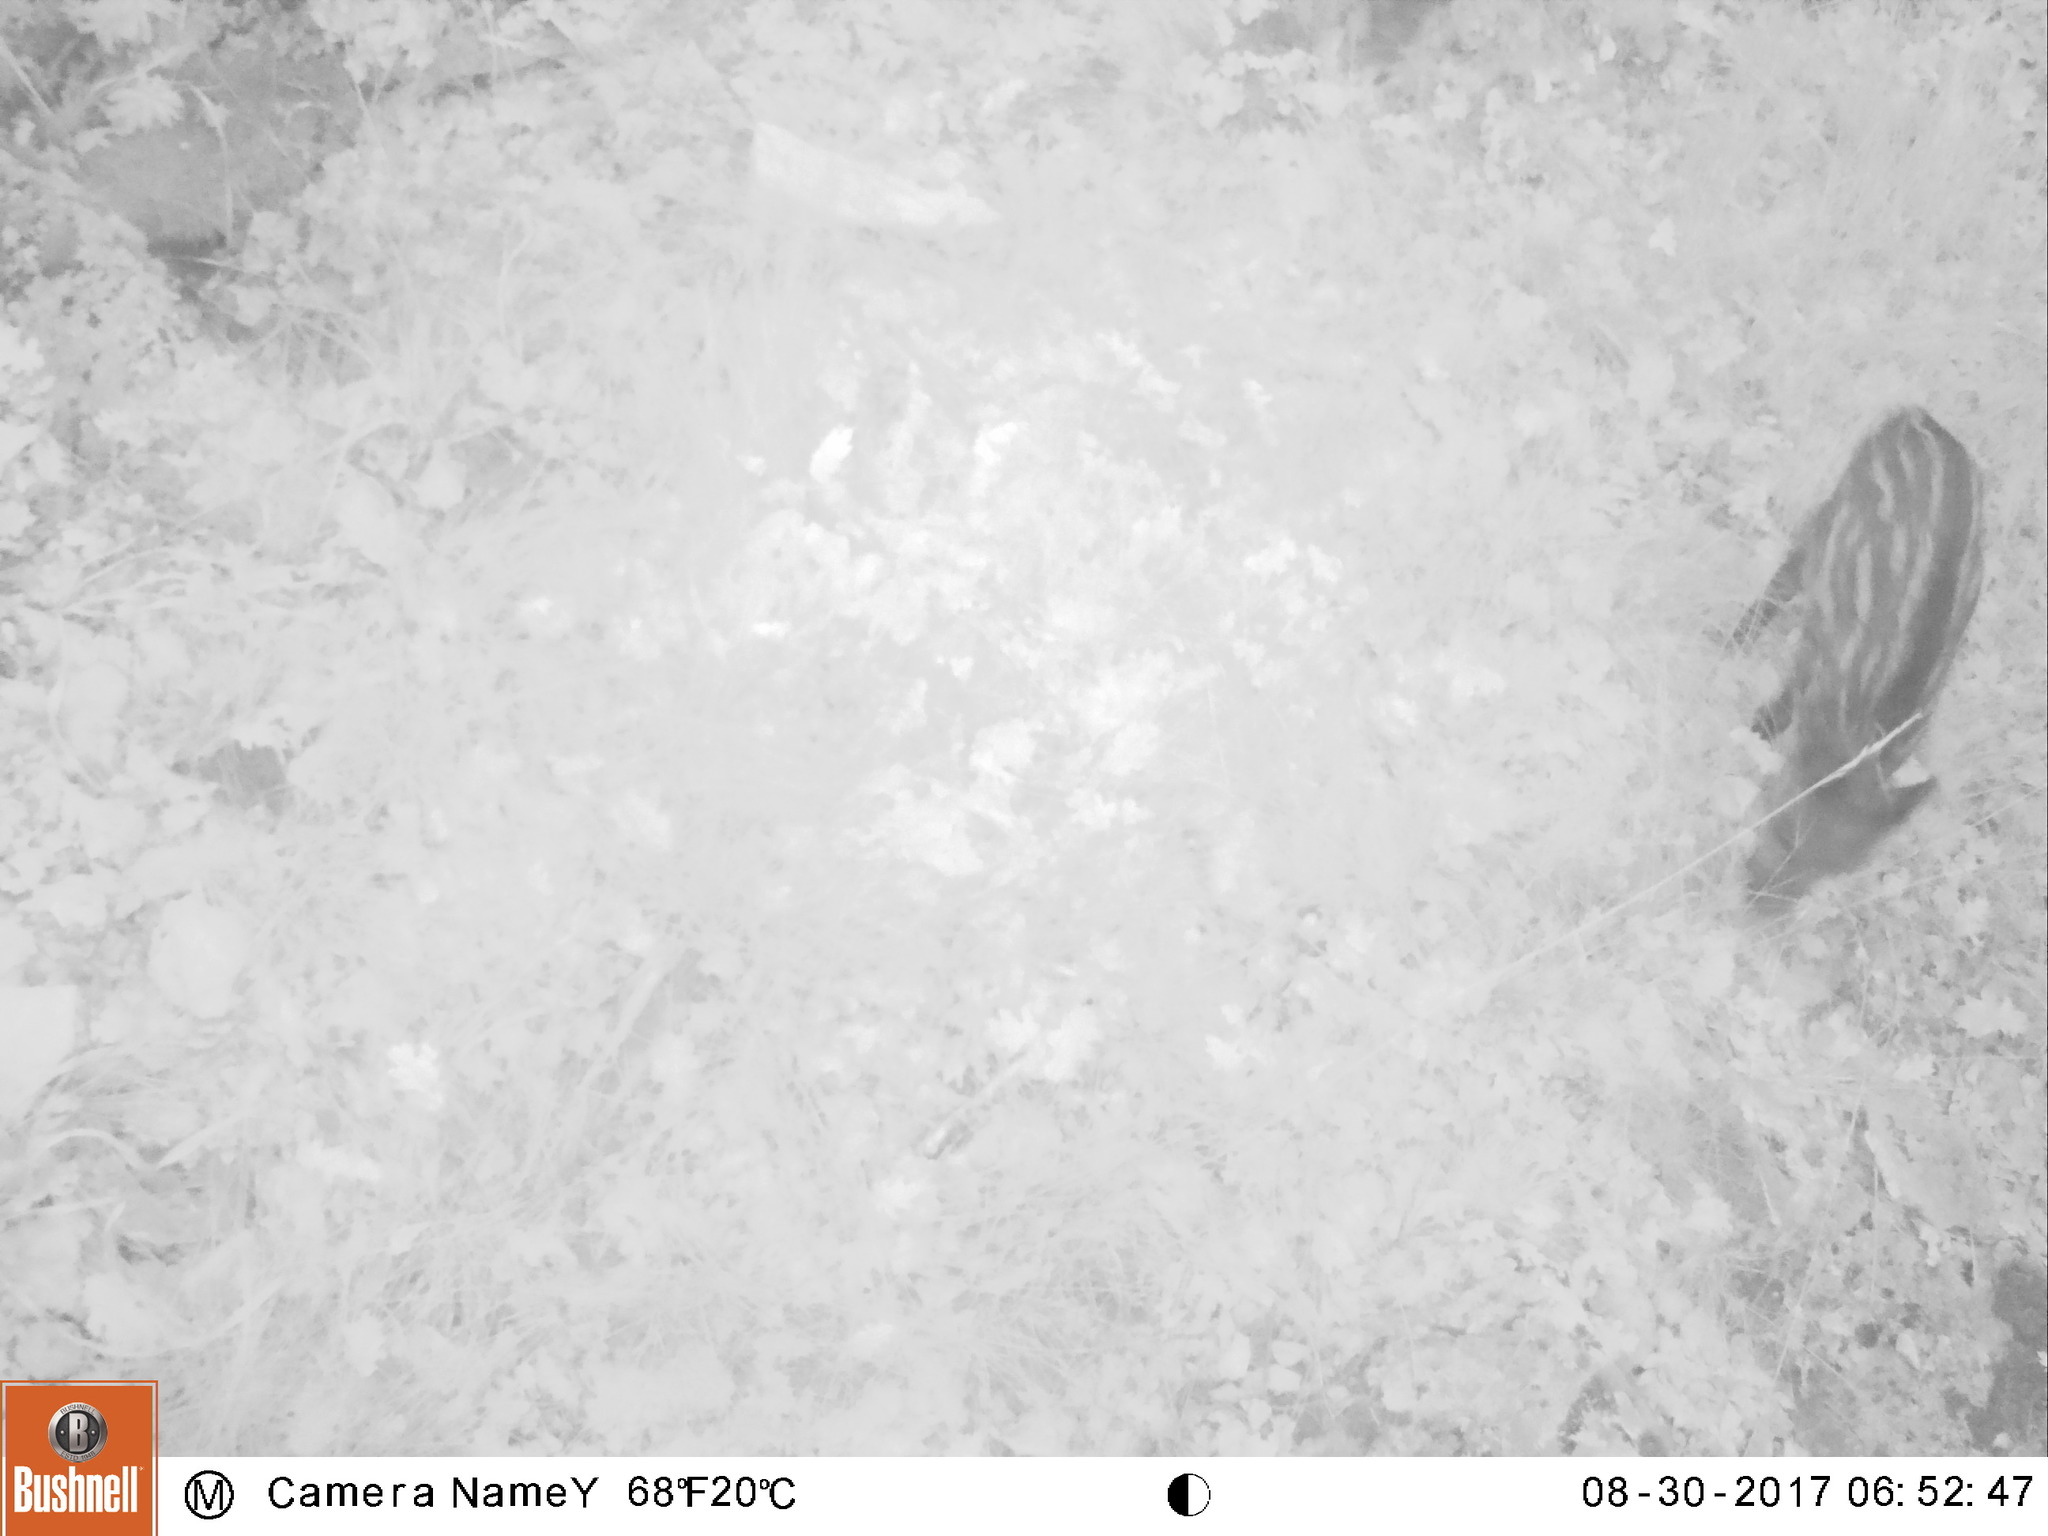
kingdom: Animalia
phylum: Chordata
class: Mammalia
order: Artiodactyla
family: Suidae
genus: Sus
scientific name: Sus scrofa
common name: Wild boar
